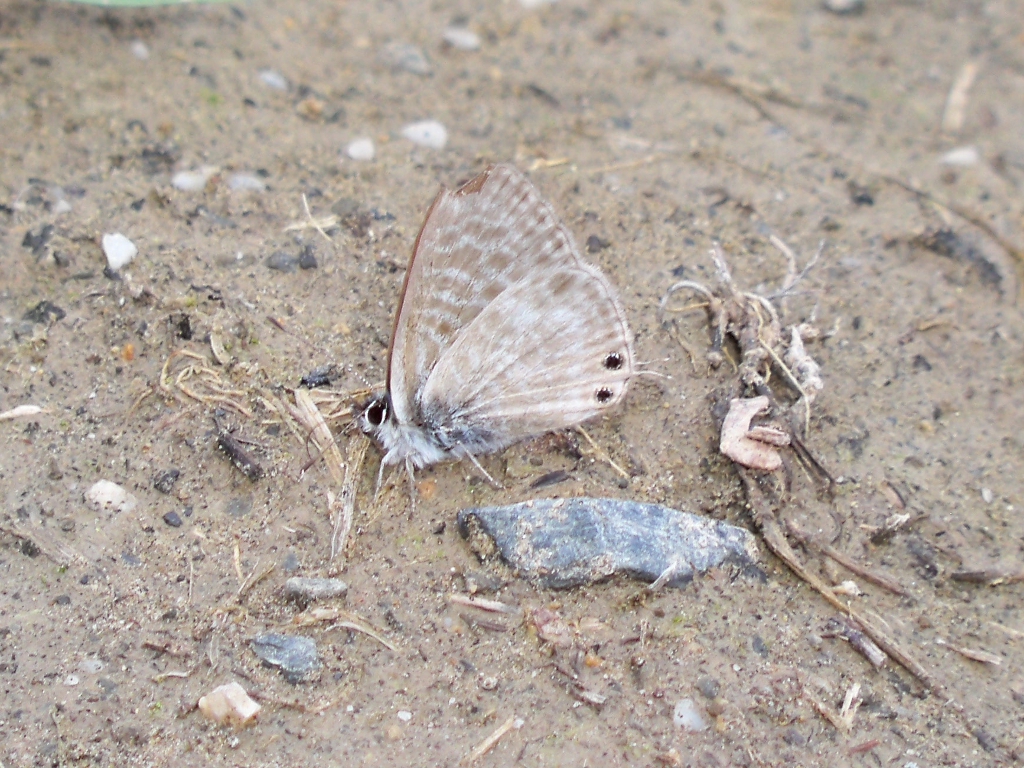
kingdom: Animalia
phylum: Arthropoda
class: Insecta
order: Lepidoptera
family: Lycaenidae
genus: Leptotes
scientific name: Leptotes pirithous
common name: Lang's short-tailed blue
